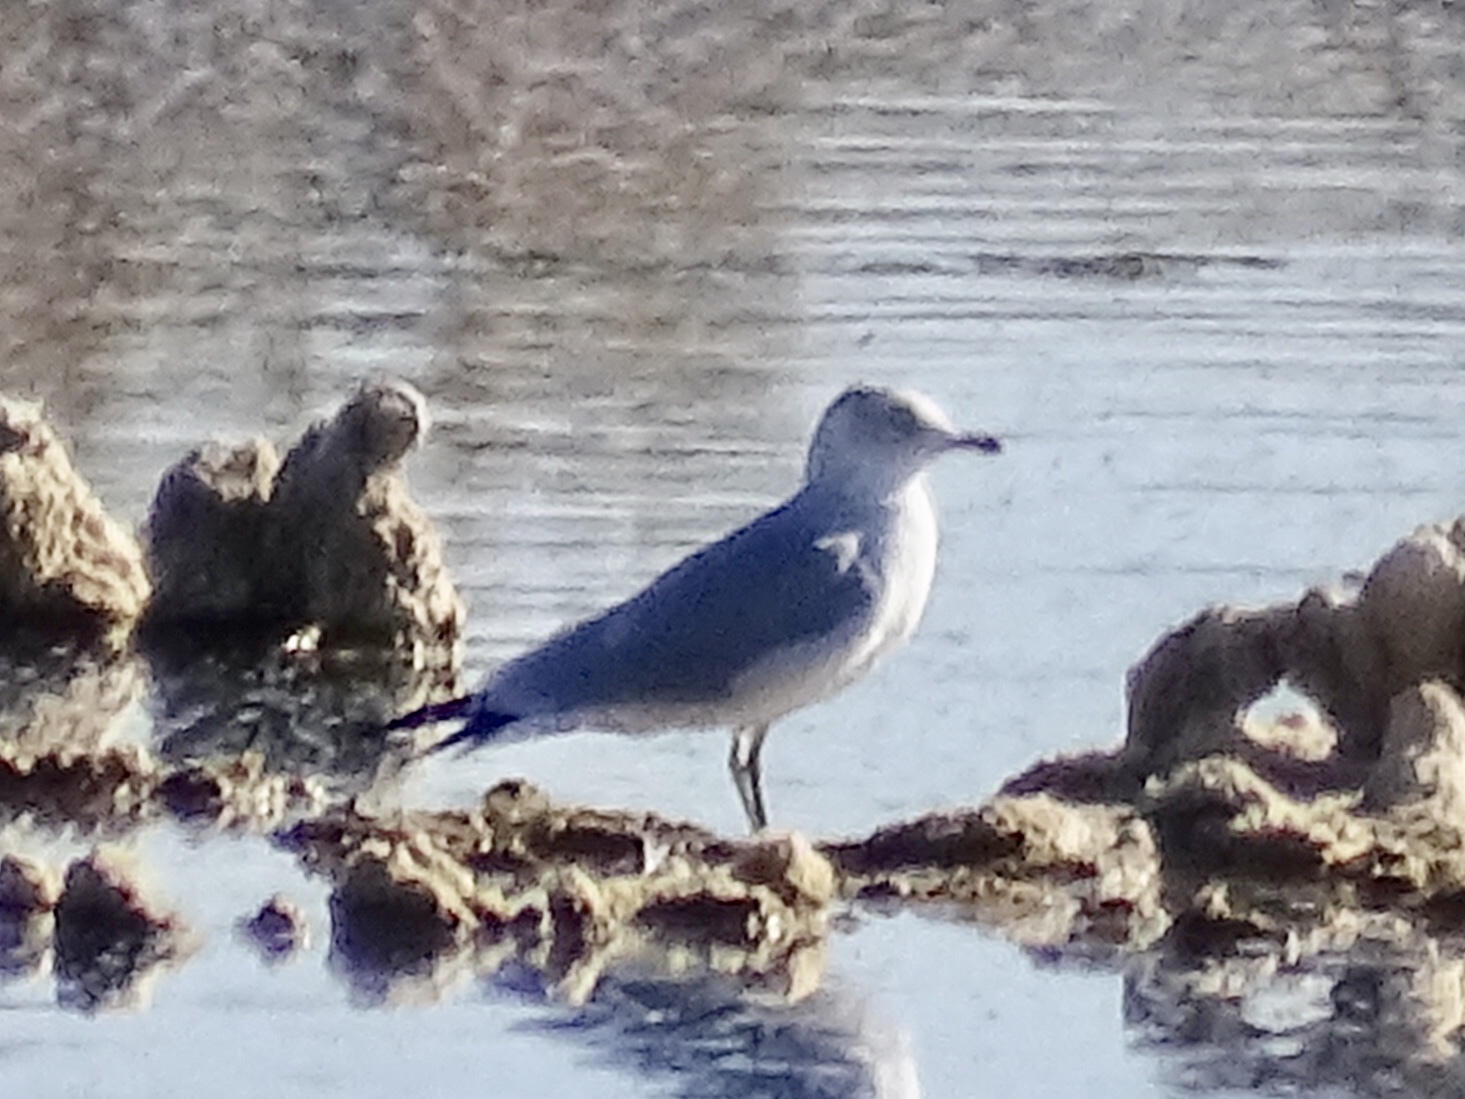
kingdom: Animalia
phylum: Chordata
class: Aves
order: Charadriiformes
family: Laridae
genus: Larus
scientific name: Larus delawarensis
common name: Ring-billed gull
